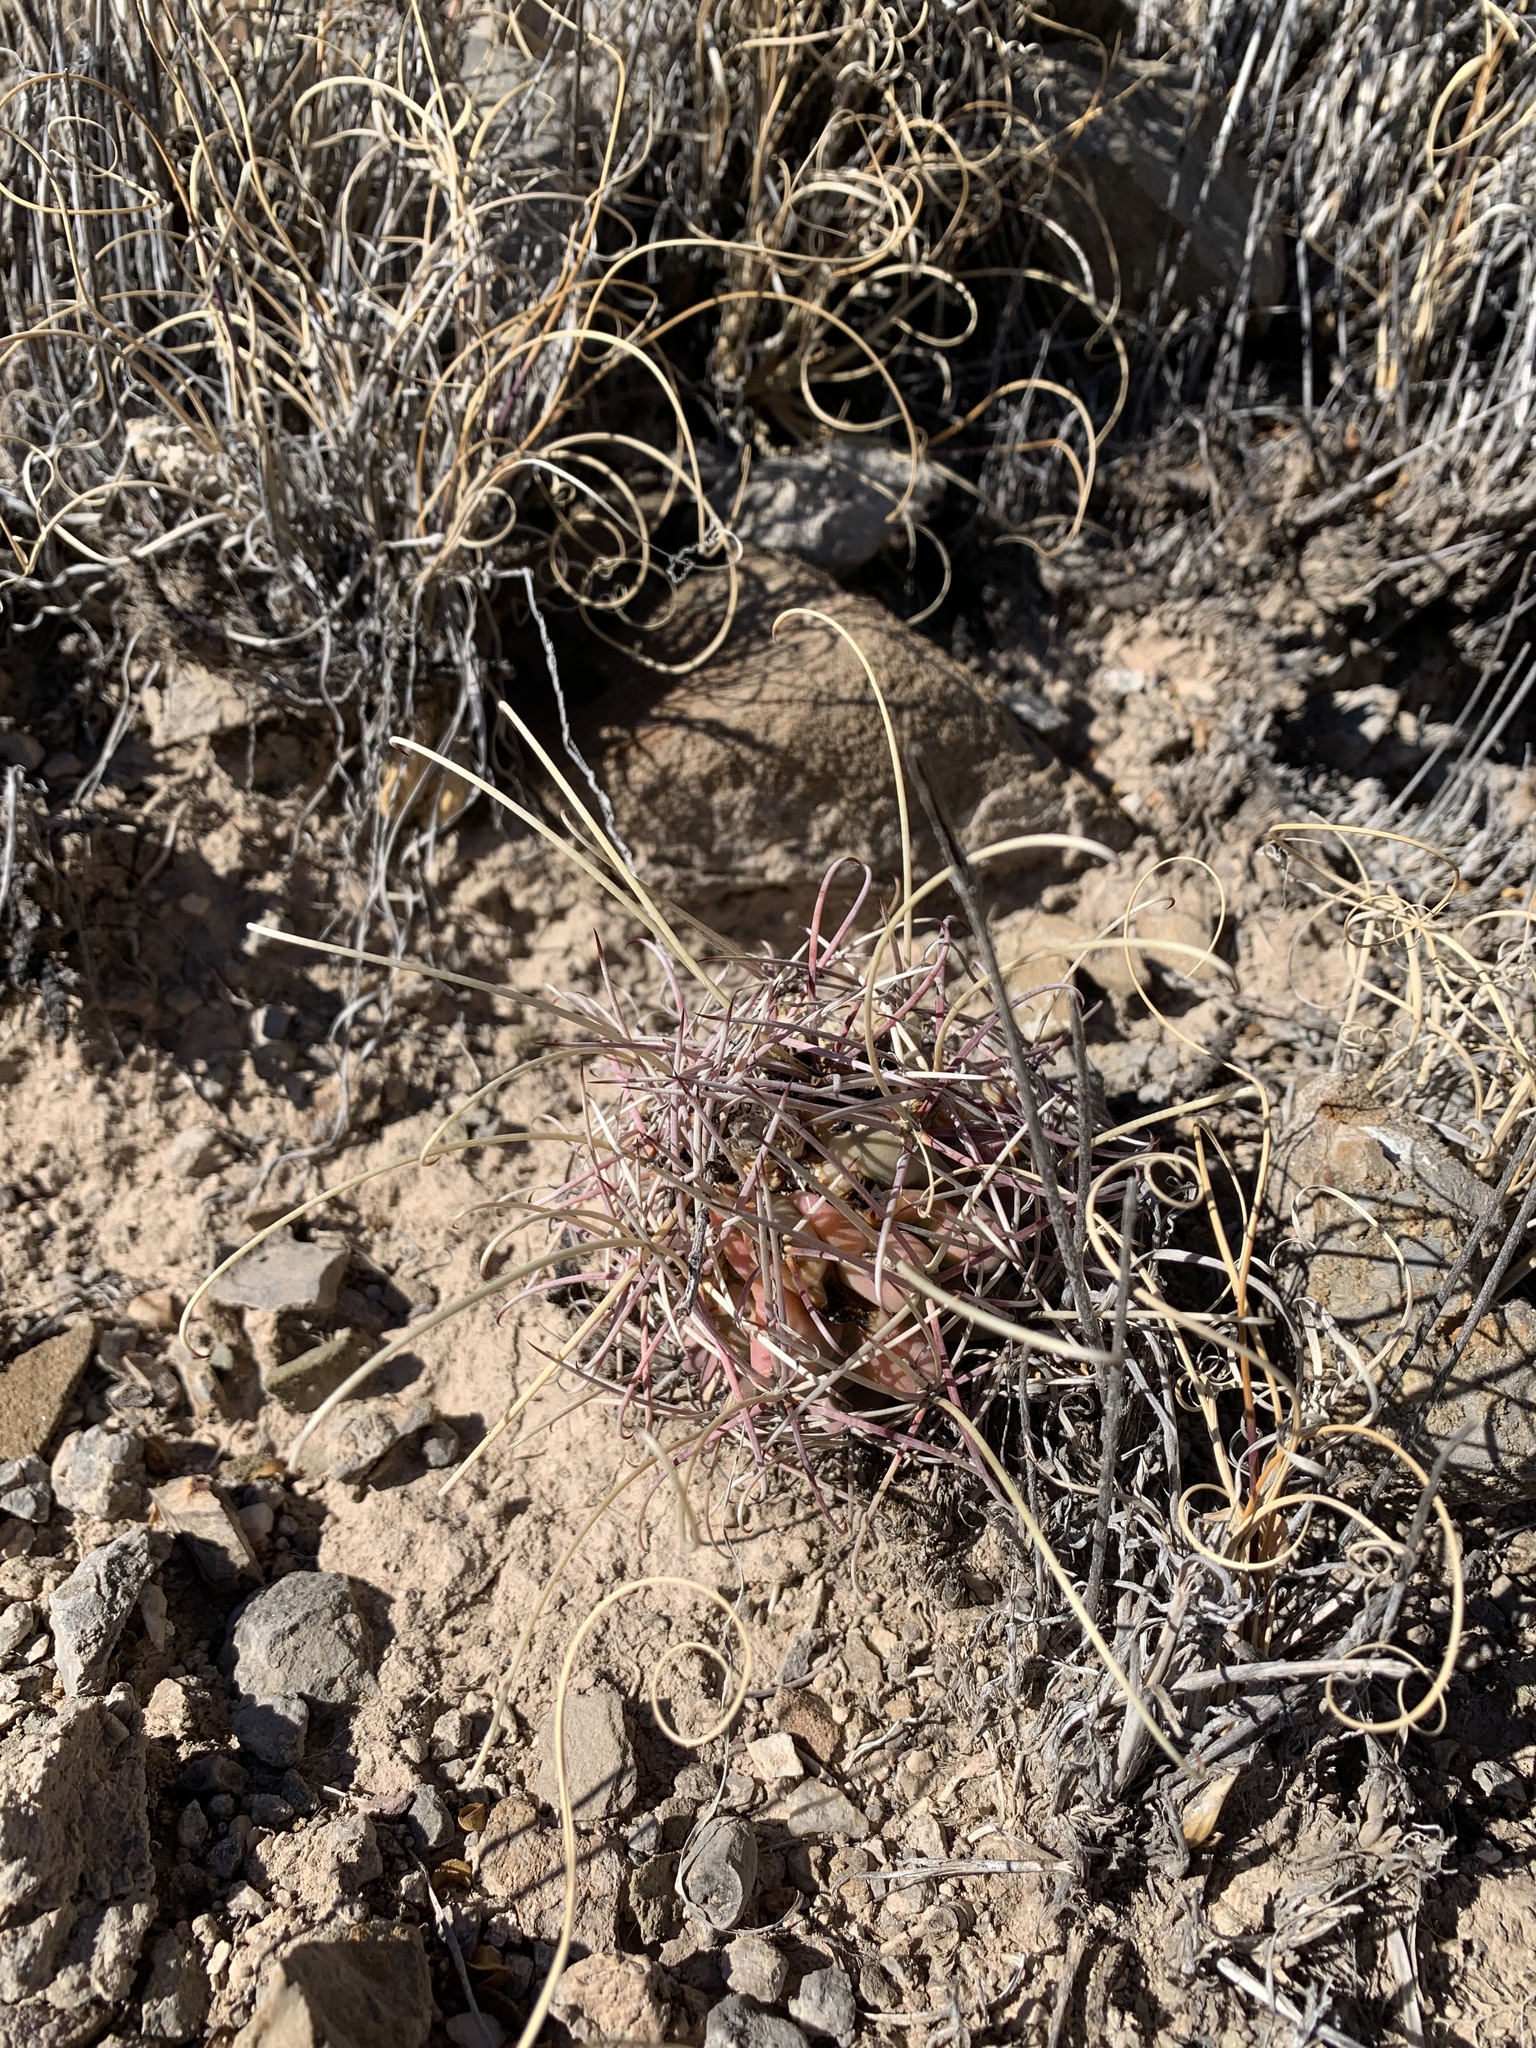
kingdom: Plantae
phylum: Tracheophyta
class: Magnoliopsida
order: Caryophyllales
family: Cactaceae
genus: Ferocactus
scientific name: Ferocactus uncinatus
